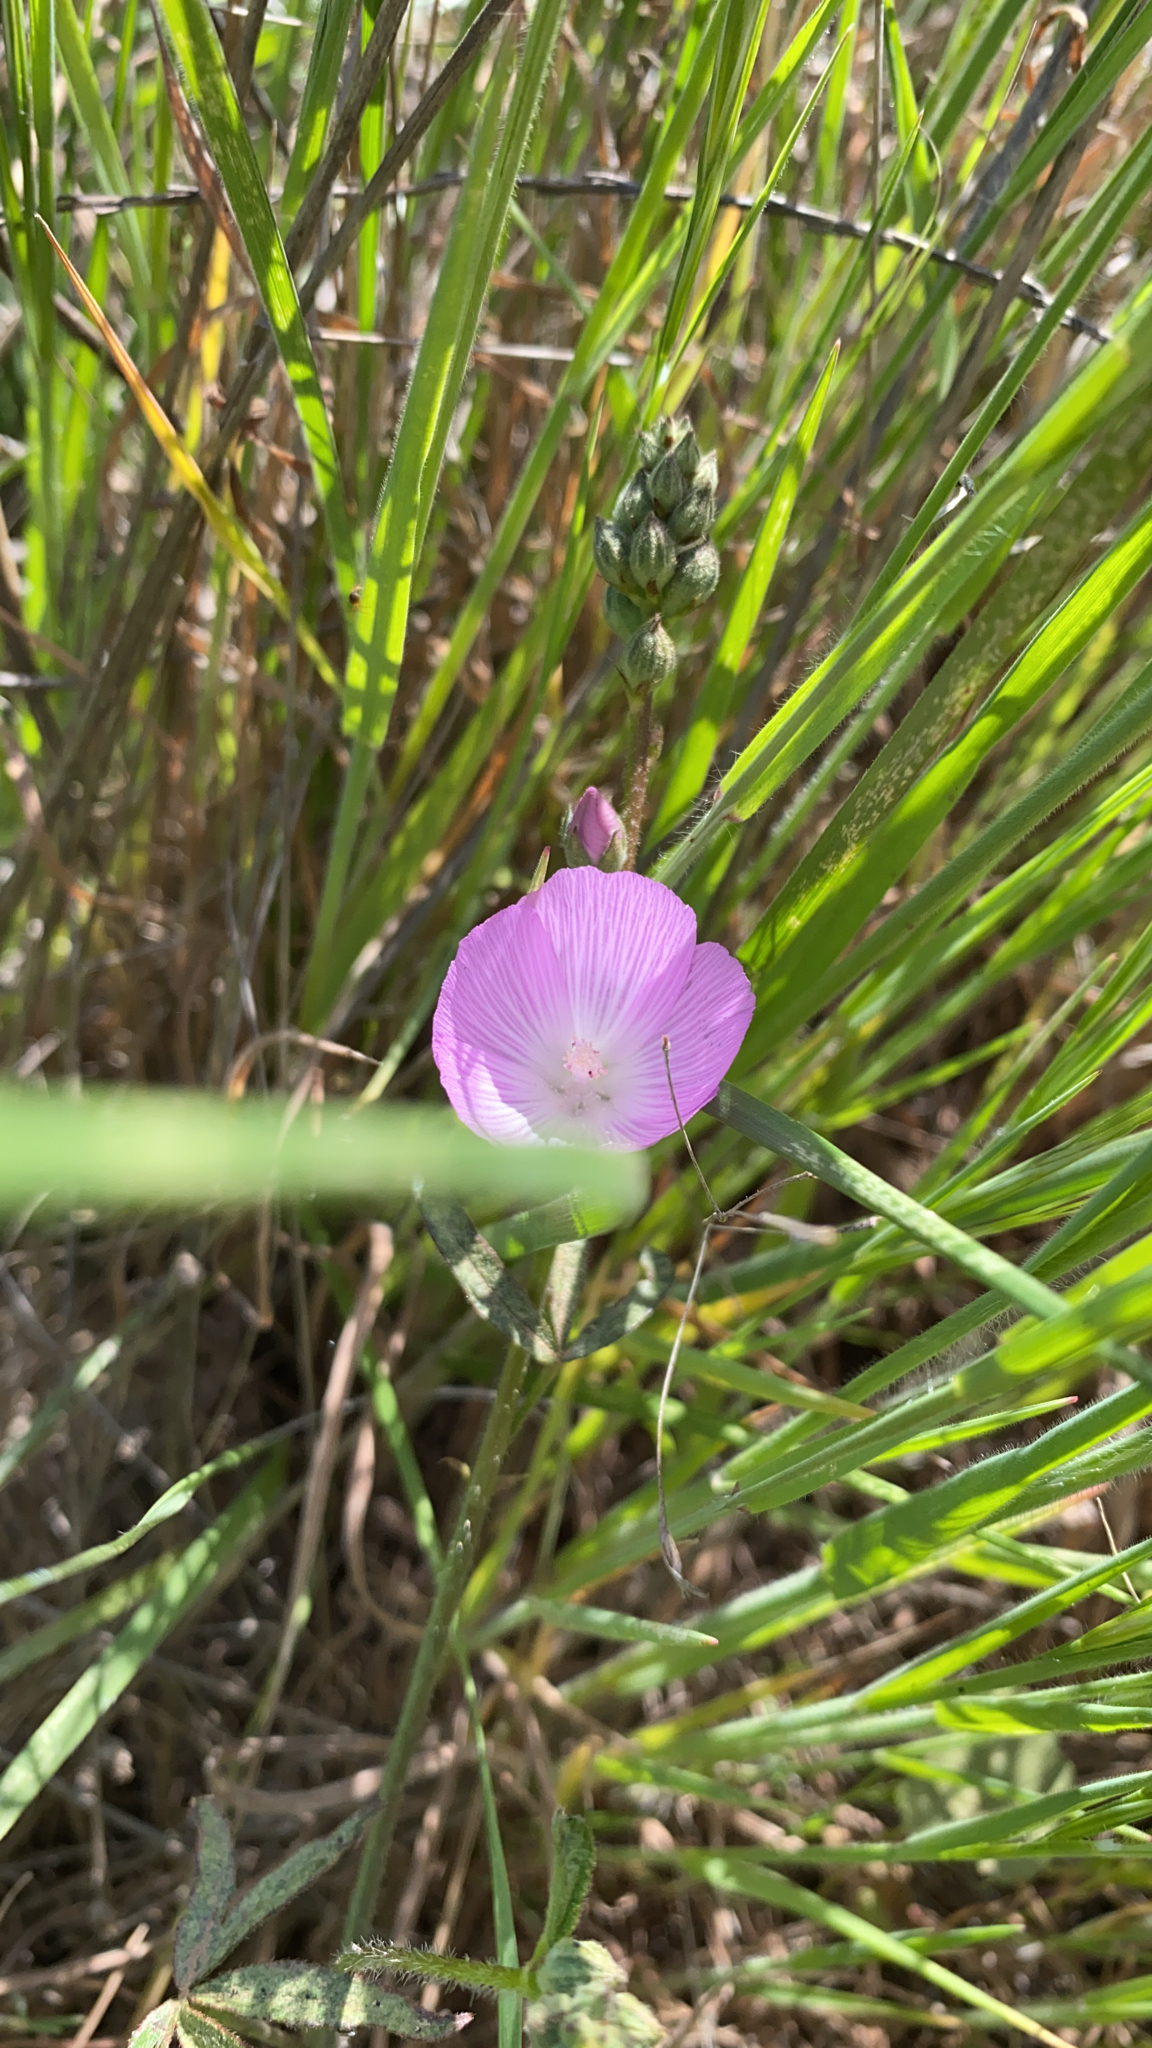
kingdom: Plantae
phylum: Tracheophyta
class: Magnoliopsida
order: Malvales
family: Malvaceae
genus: Sidalcea
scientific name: Sidalcea sparsifolia
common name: Southern checkerbloom
